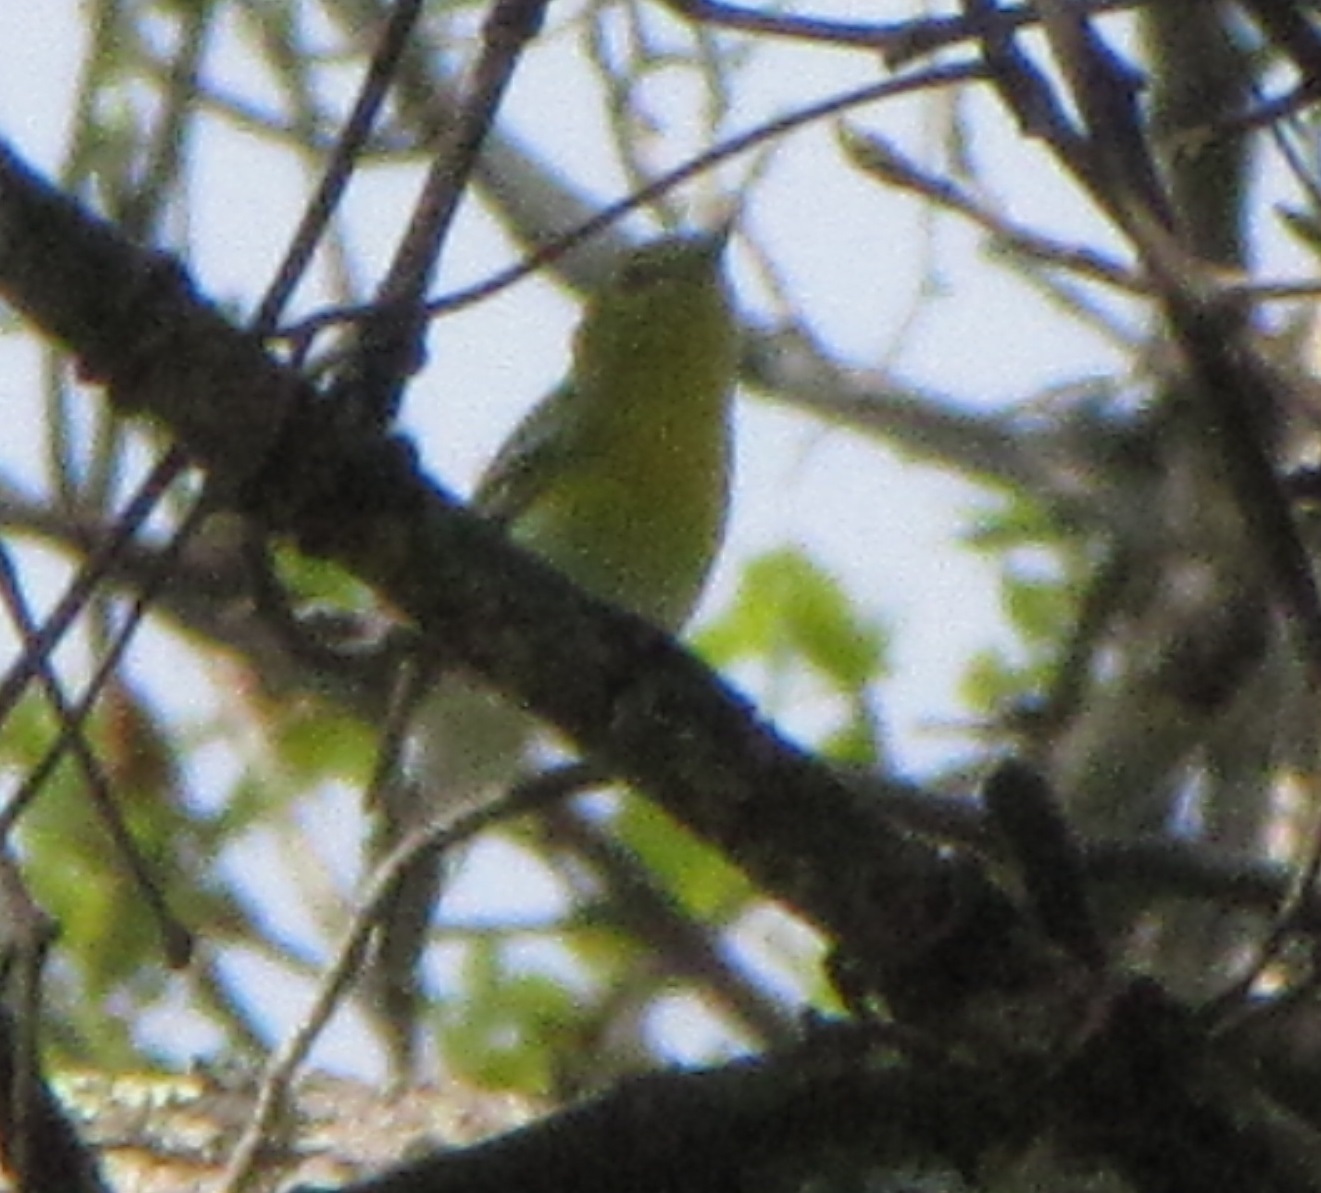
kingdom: Animalia
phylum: Chordata
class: Aves
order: Passeriformes
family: Vireonidae
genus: Vireo
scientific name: Vireo flavifrons
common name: Yellow-throated vireo
